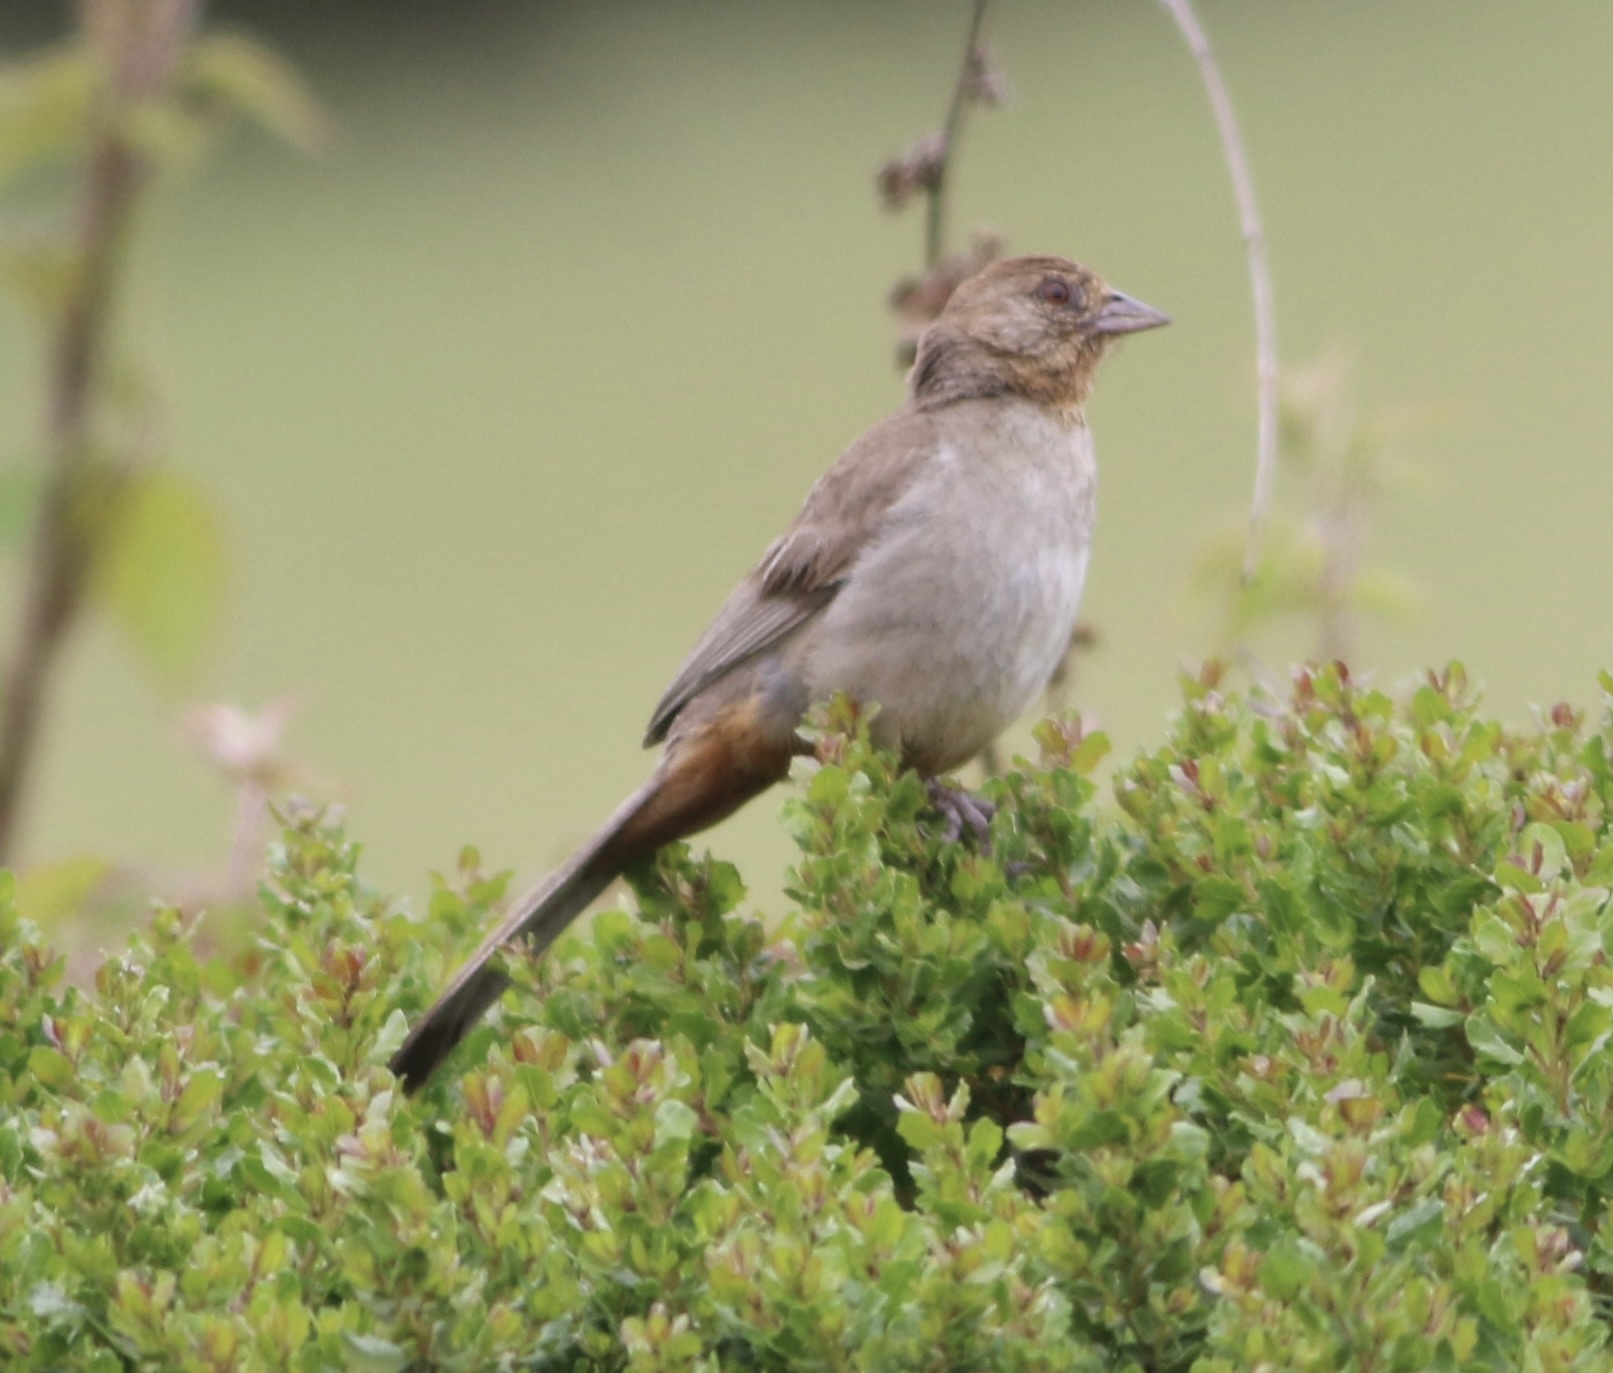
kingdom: Animalia
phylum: Chordata
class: Aves
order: Passeriformes
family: Passerellidae
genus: Melozone
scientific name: Melozone crissalis
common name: California towhee
